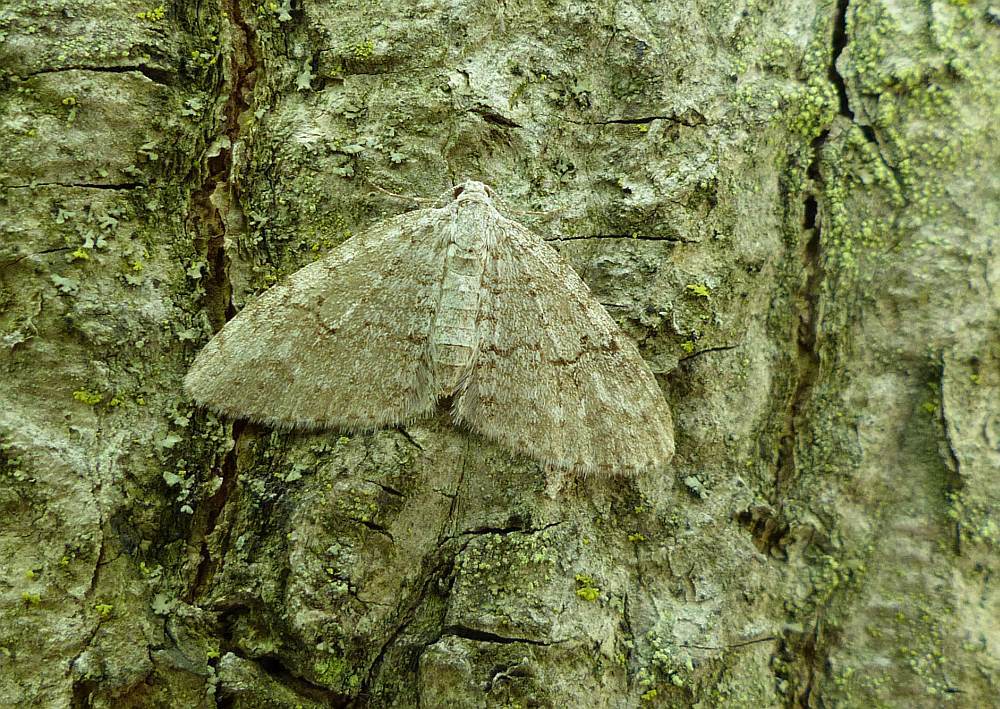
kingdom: Animalia
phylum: Arthropoda
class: Insecta
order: Lepidoptera
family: Geometridae
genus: Venusia
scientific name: Venusia comptaria
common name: Brown-shaded carpet
